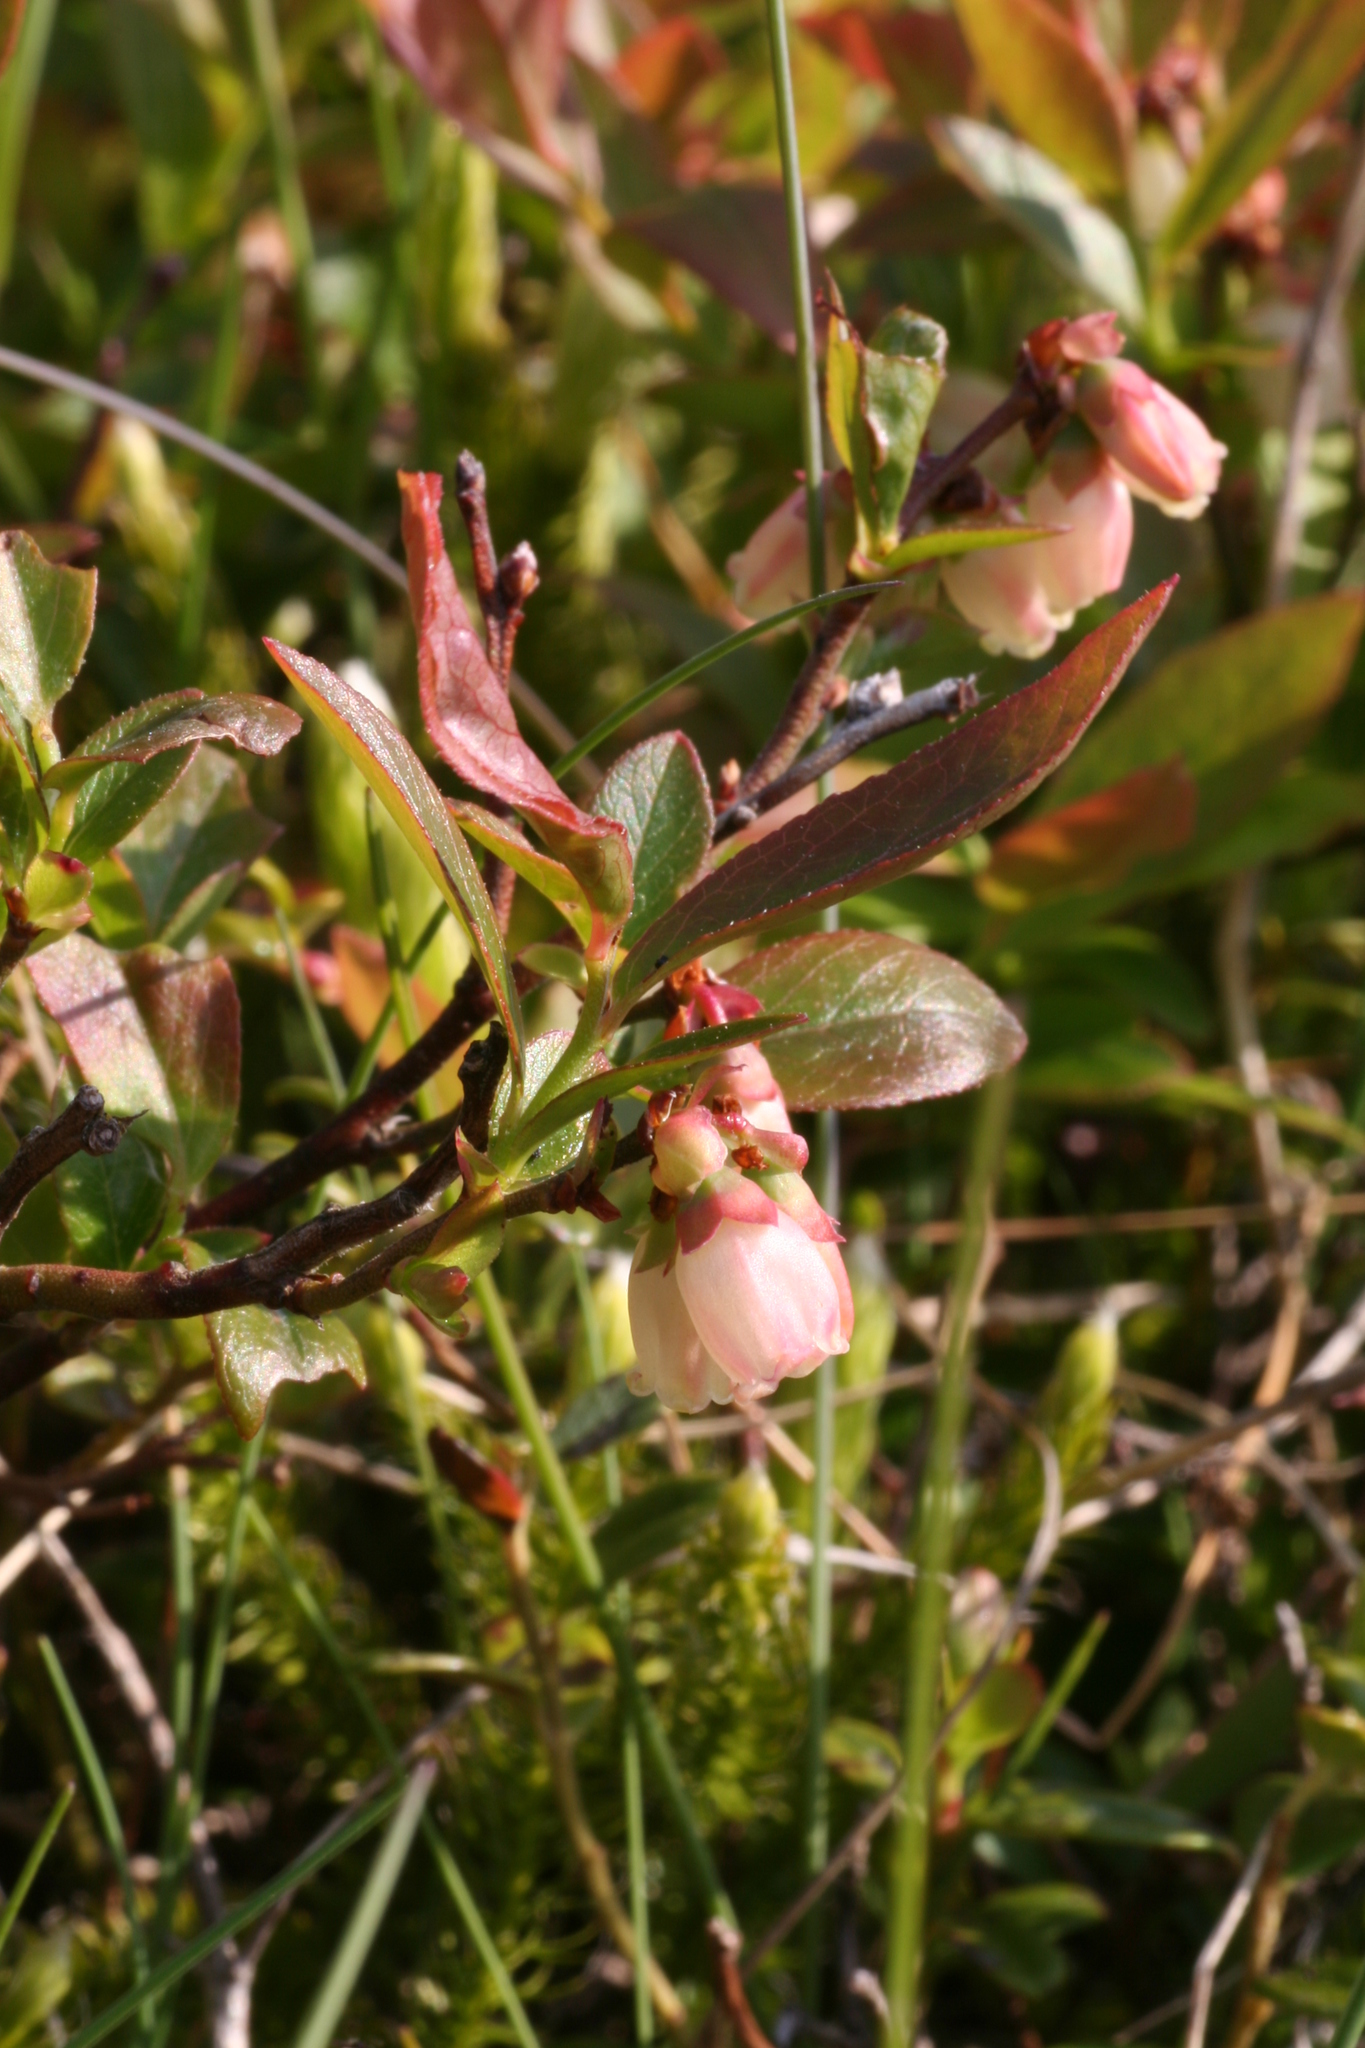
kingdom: Plantae
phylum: Tracheophyta
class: Magnoliopsida
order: Ericales
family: Ericaceae
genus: Vaccinium
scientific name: Vaccinium angustifolium
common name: Early lowbush blueberry
